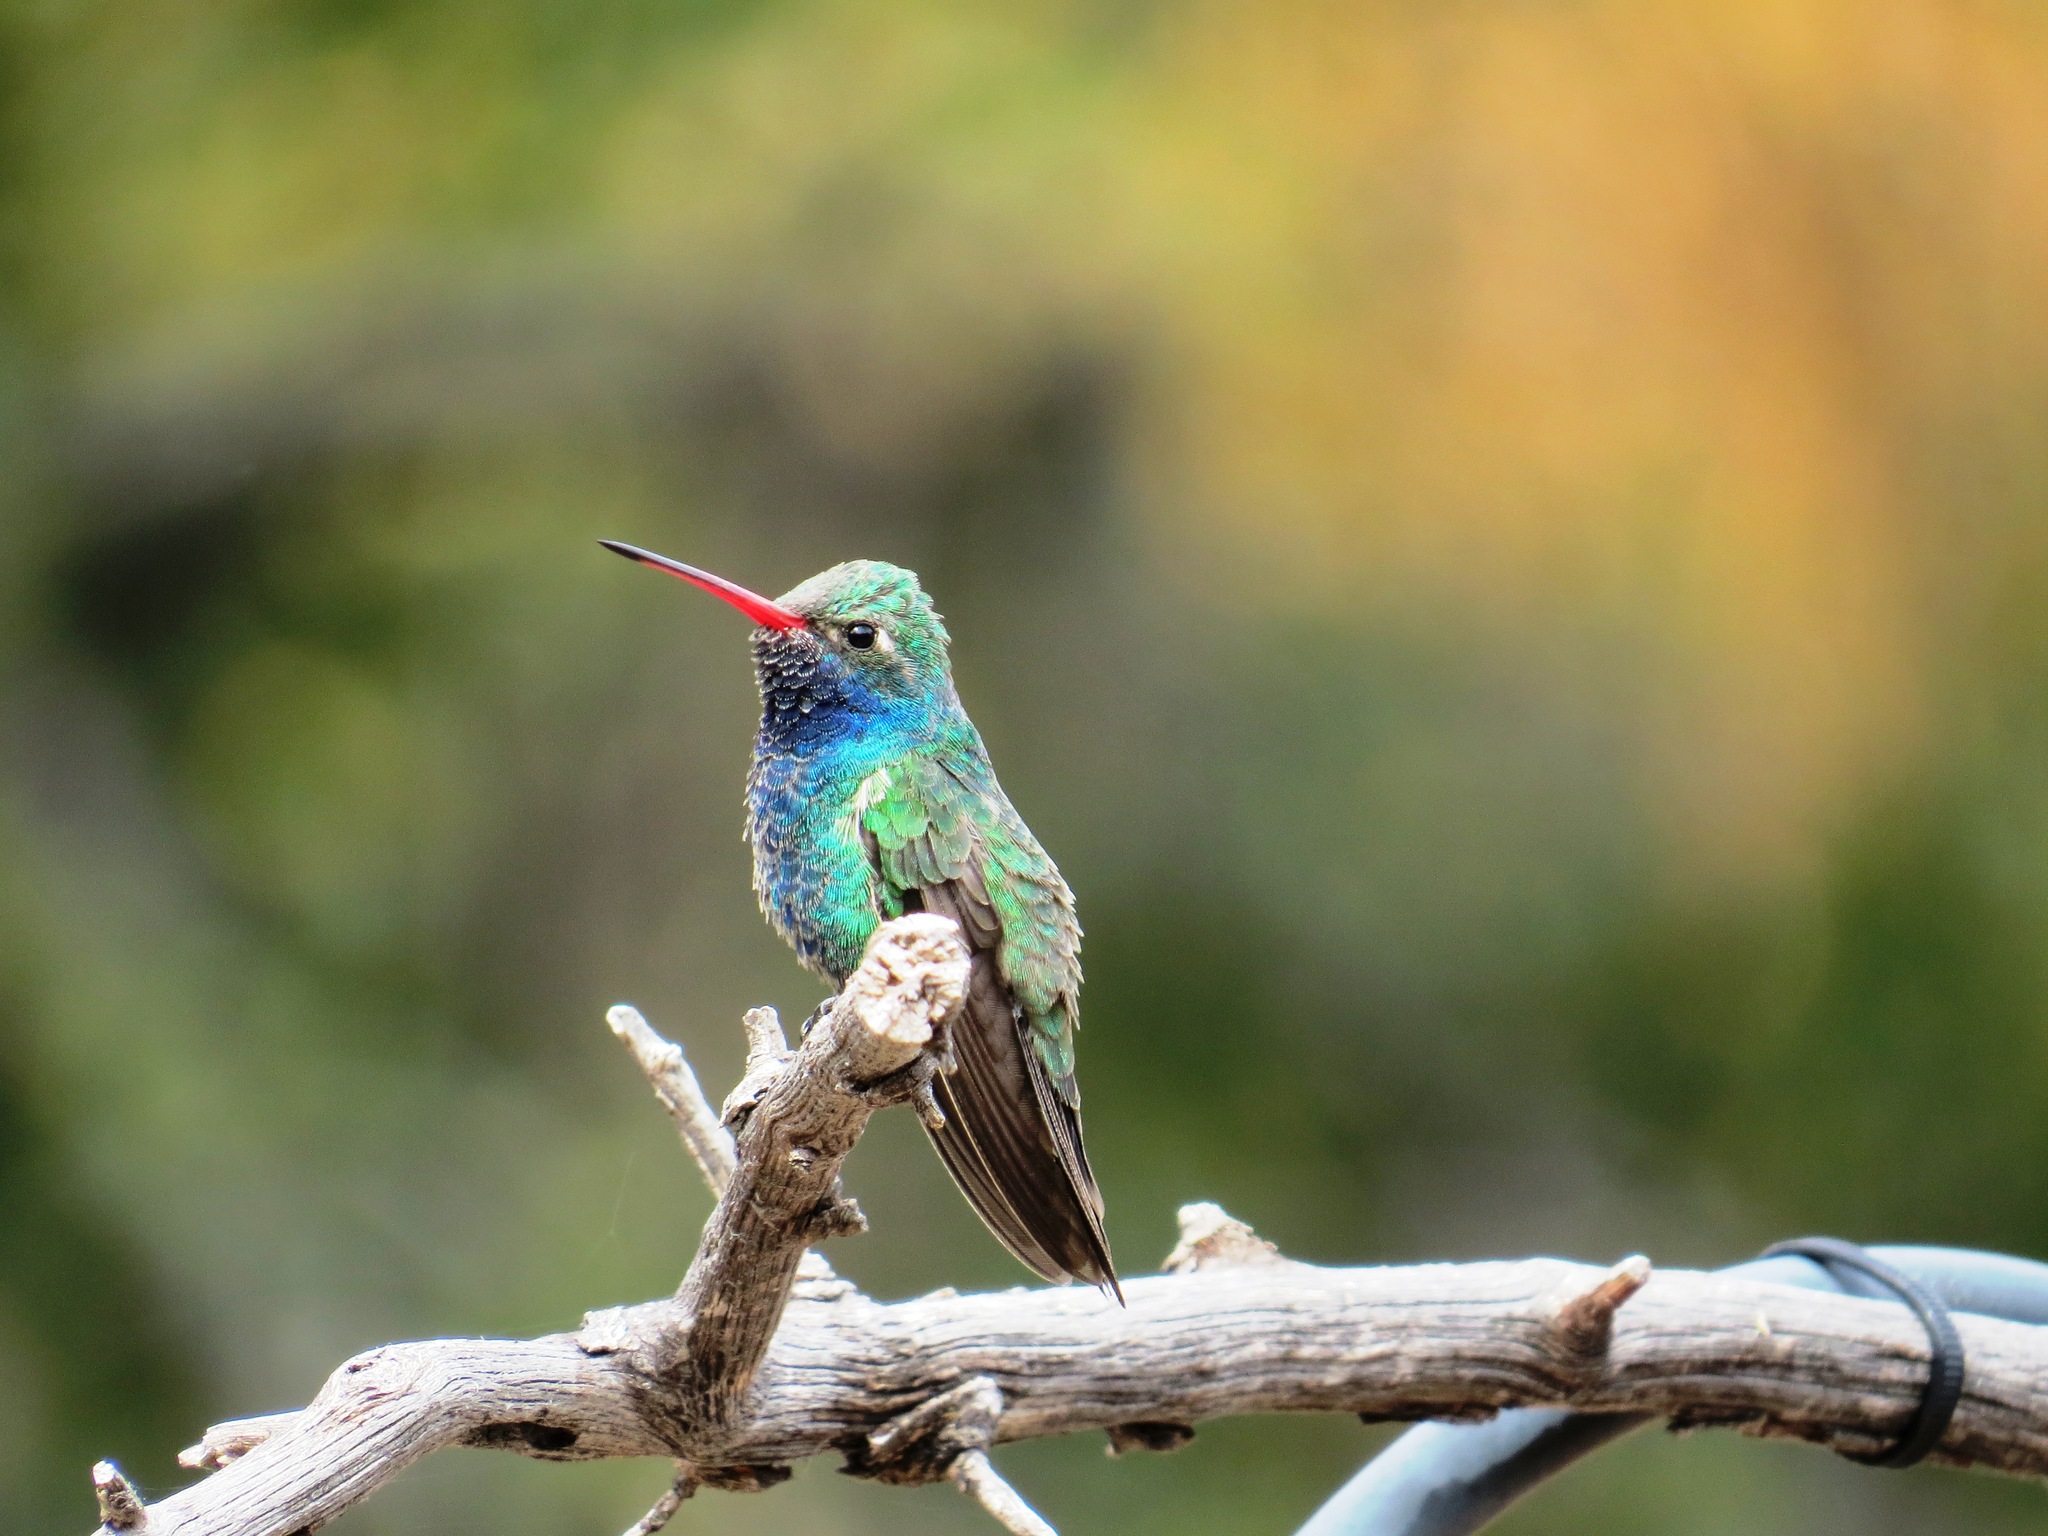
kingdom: Animalia
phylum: Chordata
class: Aves
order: Apodiformes
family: Trochilidae
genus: Cynanthus
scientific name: Cynanthus latirostris
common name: Broad-billed hummingbird
